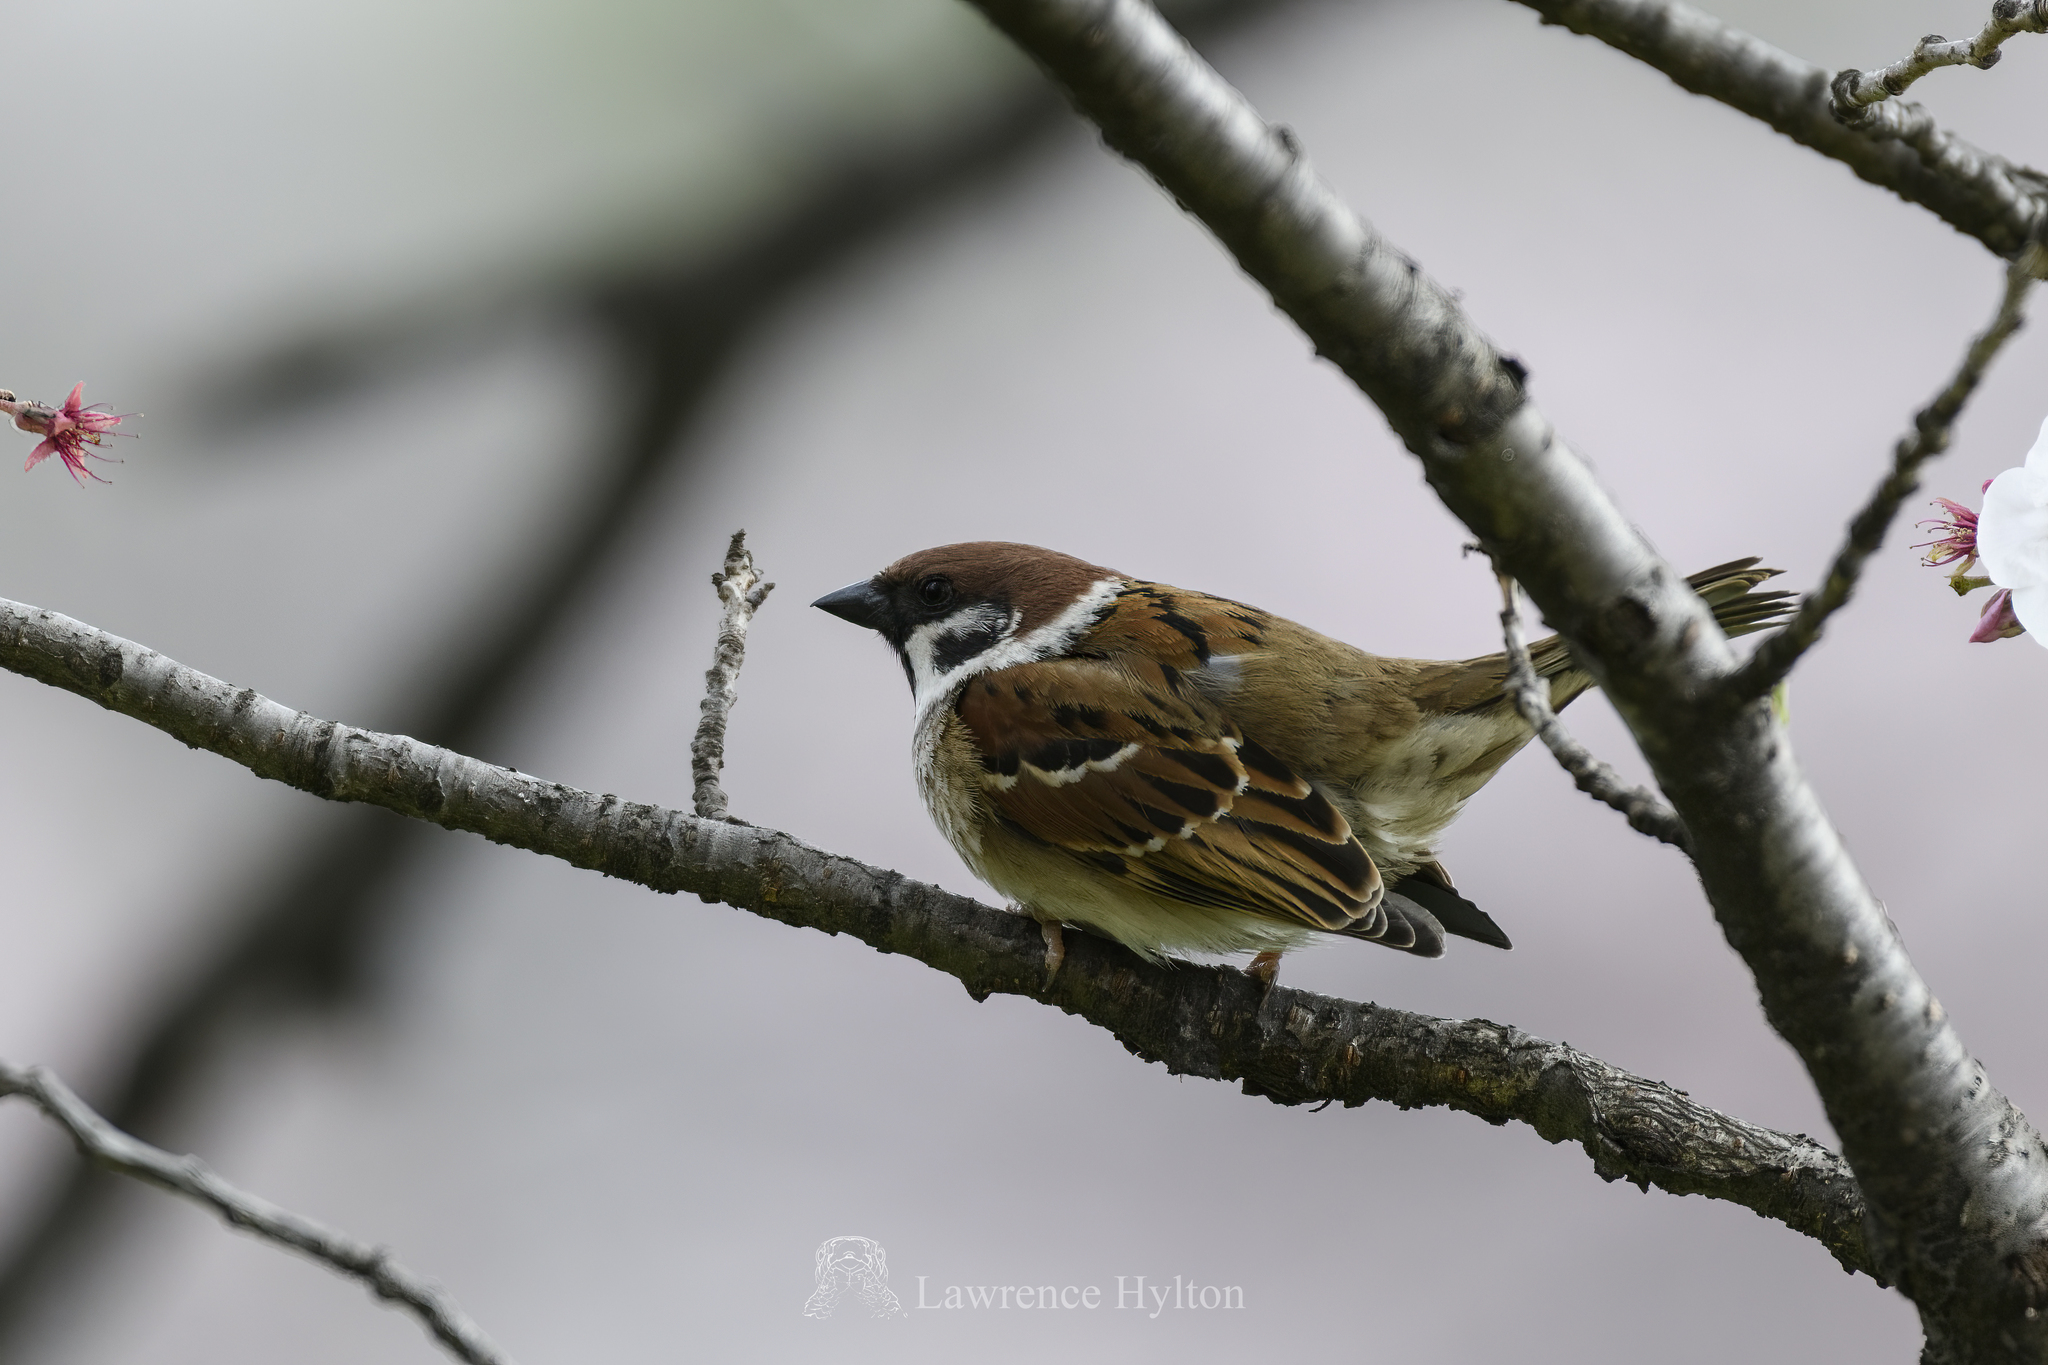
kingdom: Animalia
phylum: Chordata
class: Aves
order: Passeriformes
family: Passeridae
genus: Passer
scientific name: Passer montanus
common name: Eurasian tree sparrow
